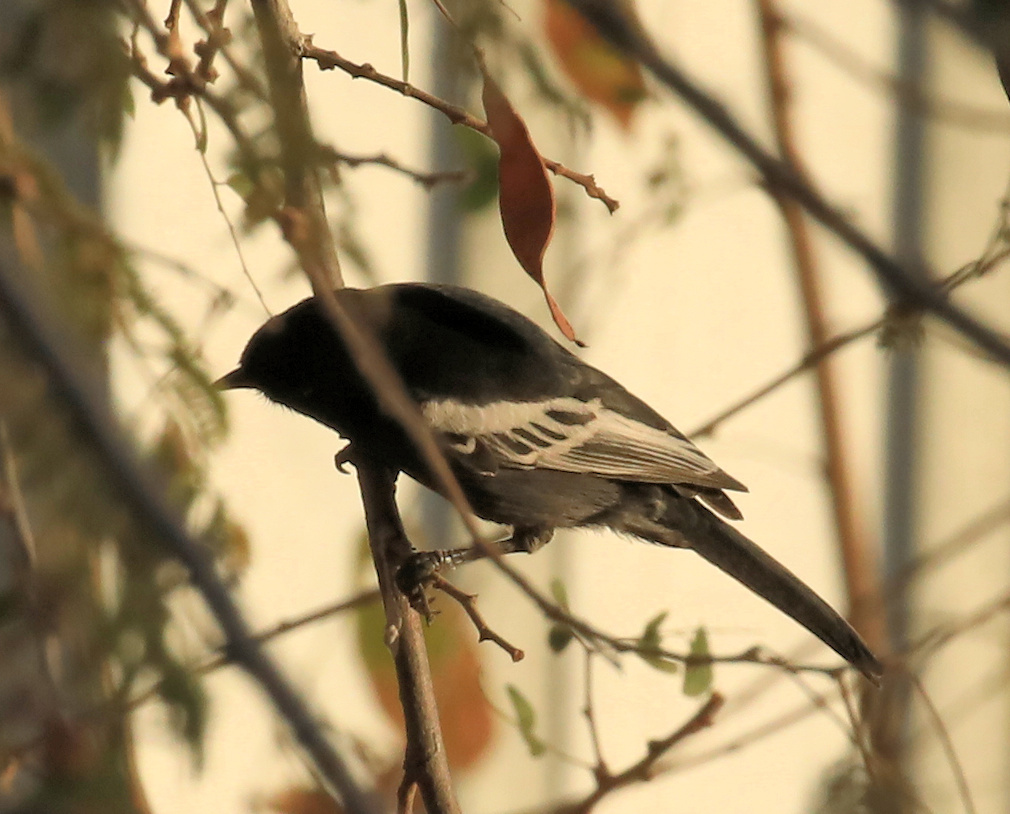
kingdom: Animalia
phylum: Chordata
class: Aves
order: Passeriformes
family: Paridae
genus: Parus
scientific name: Parus niger
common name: Southern black tit
